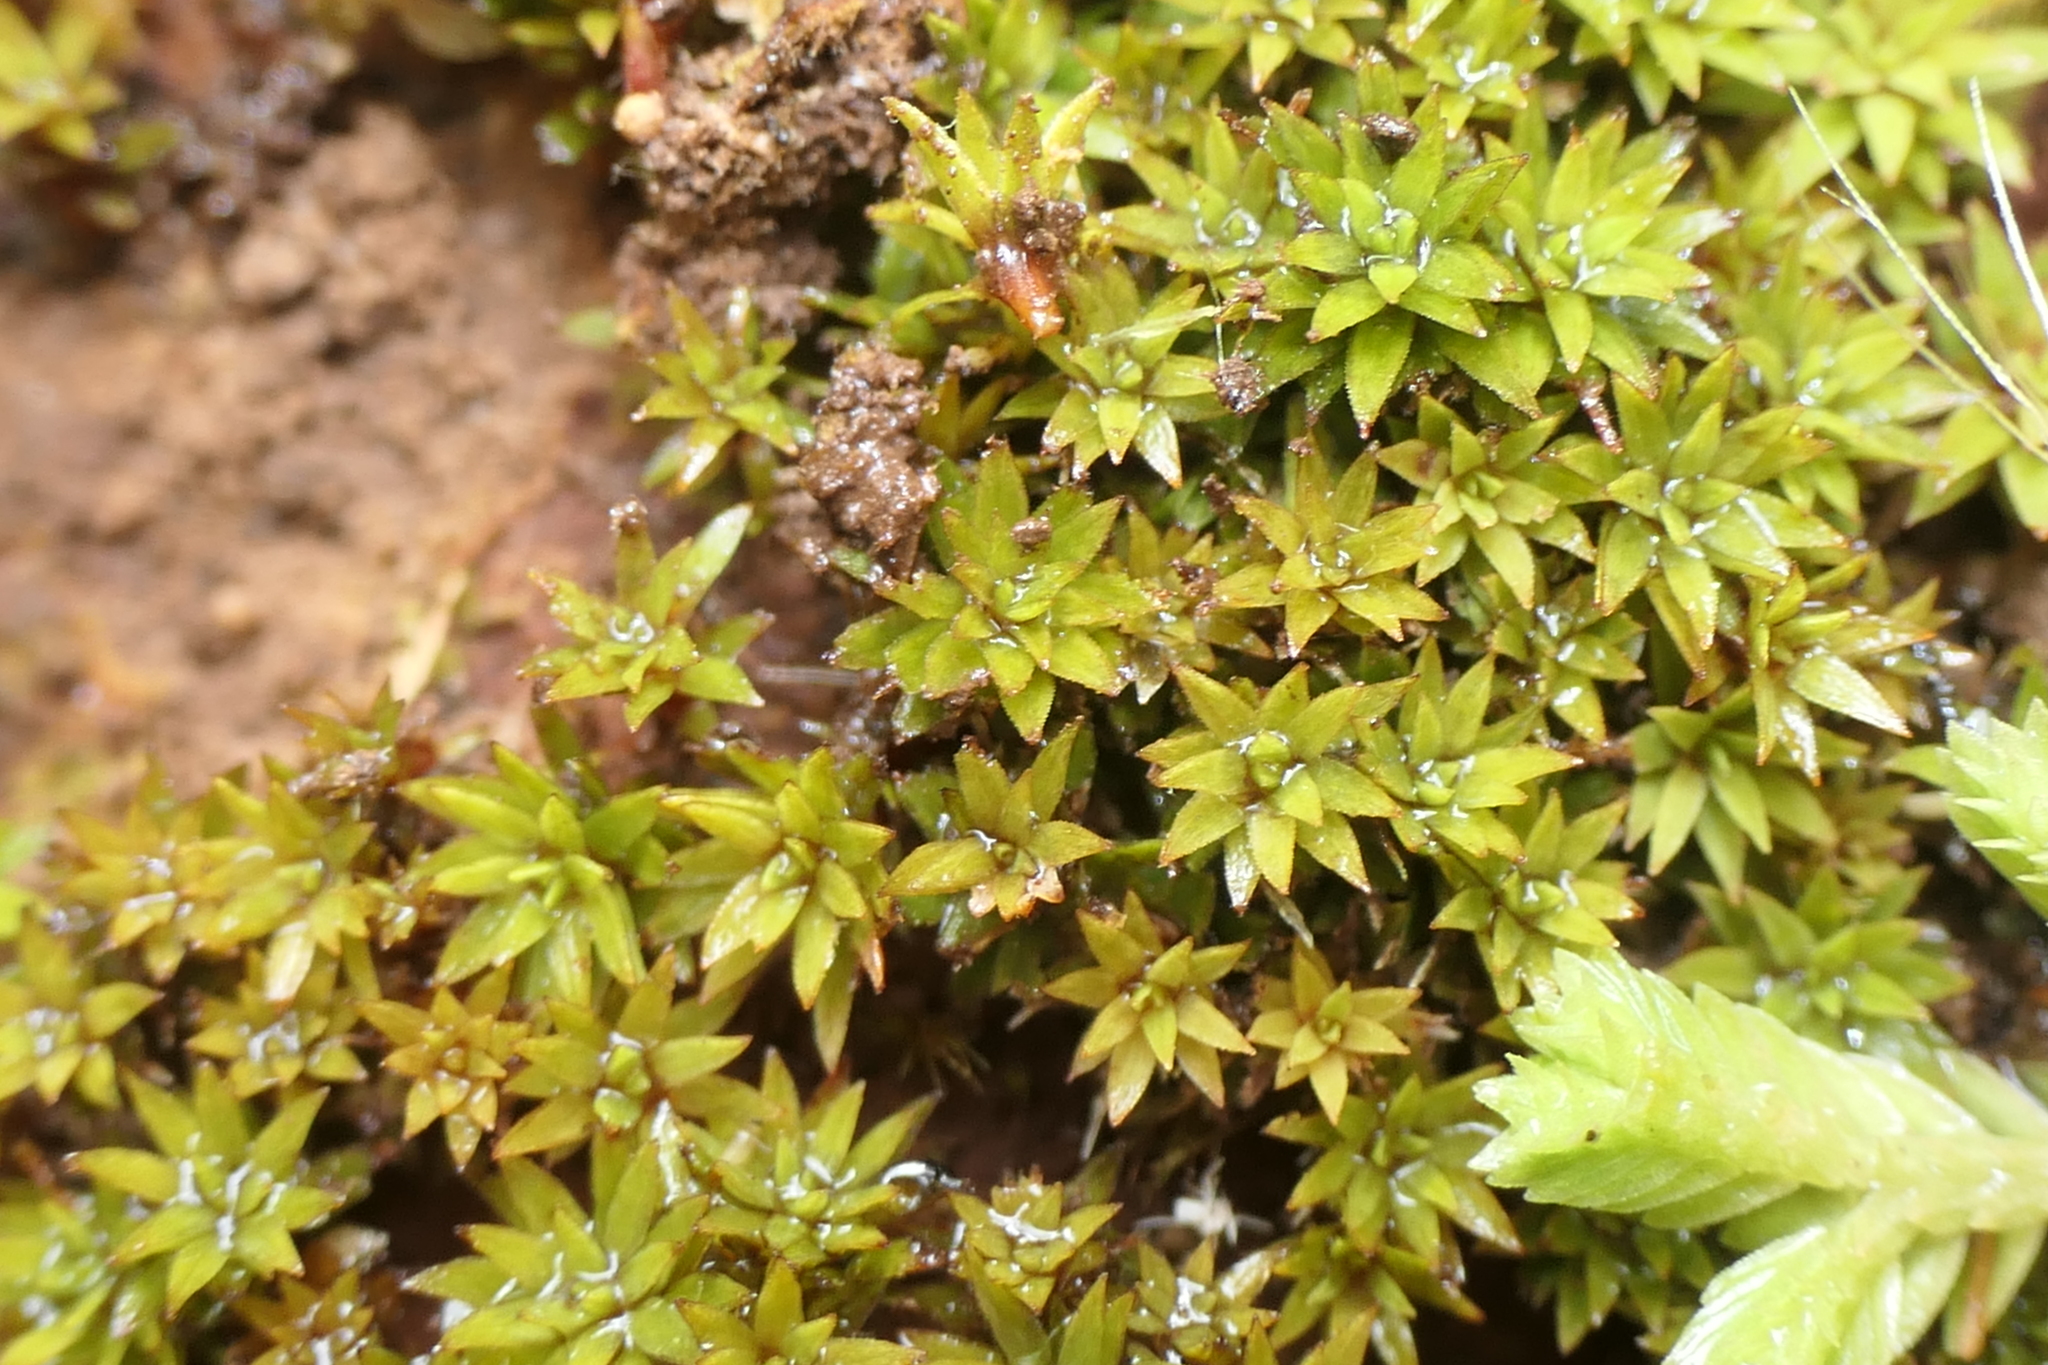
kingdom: Plantae
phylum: Bryophyta
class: Polytrichopsida
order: Polytrichales
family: Polytrichaceae
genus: Pogonatum
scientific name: Pogonatum aloides
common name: Aloe haircap
